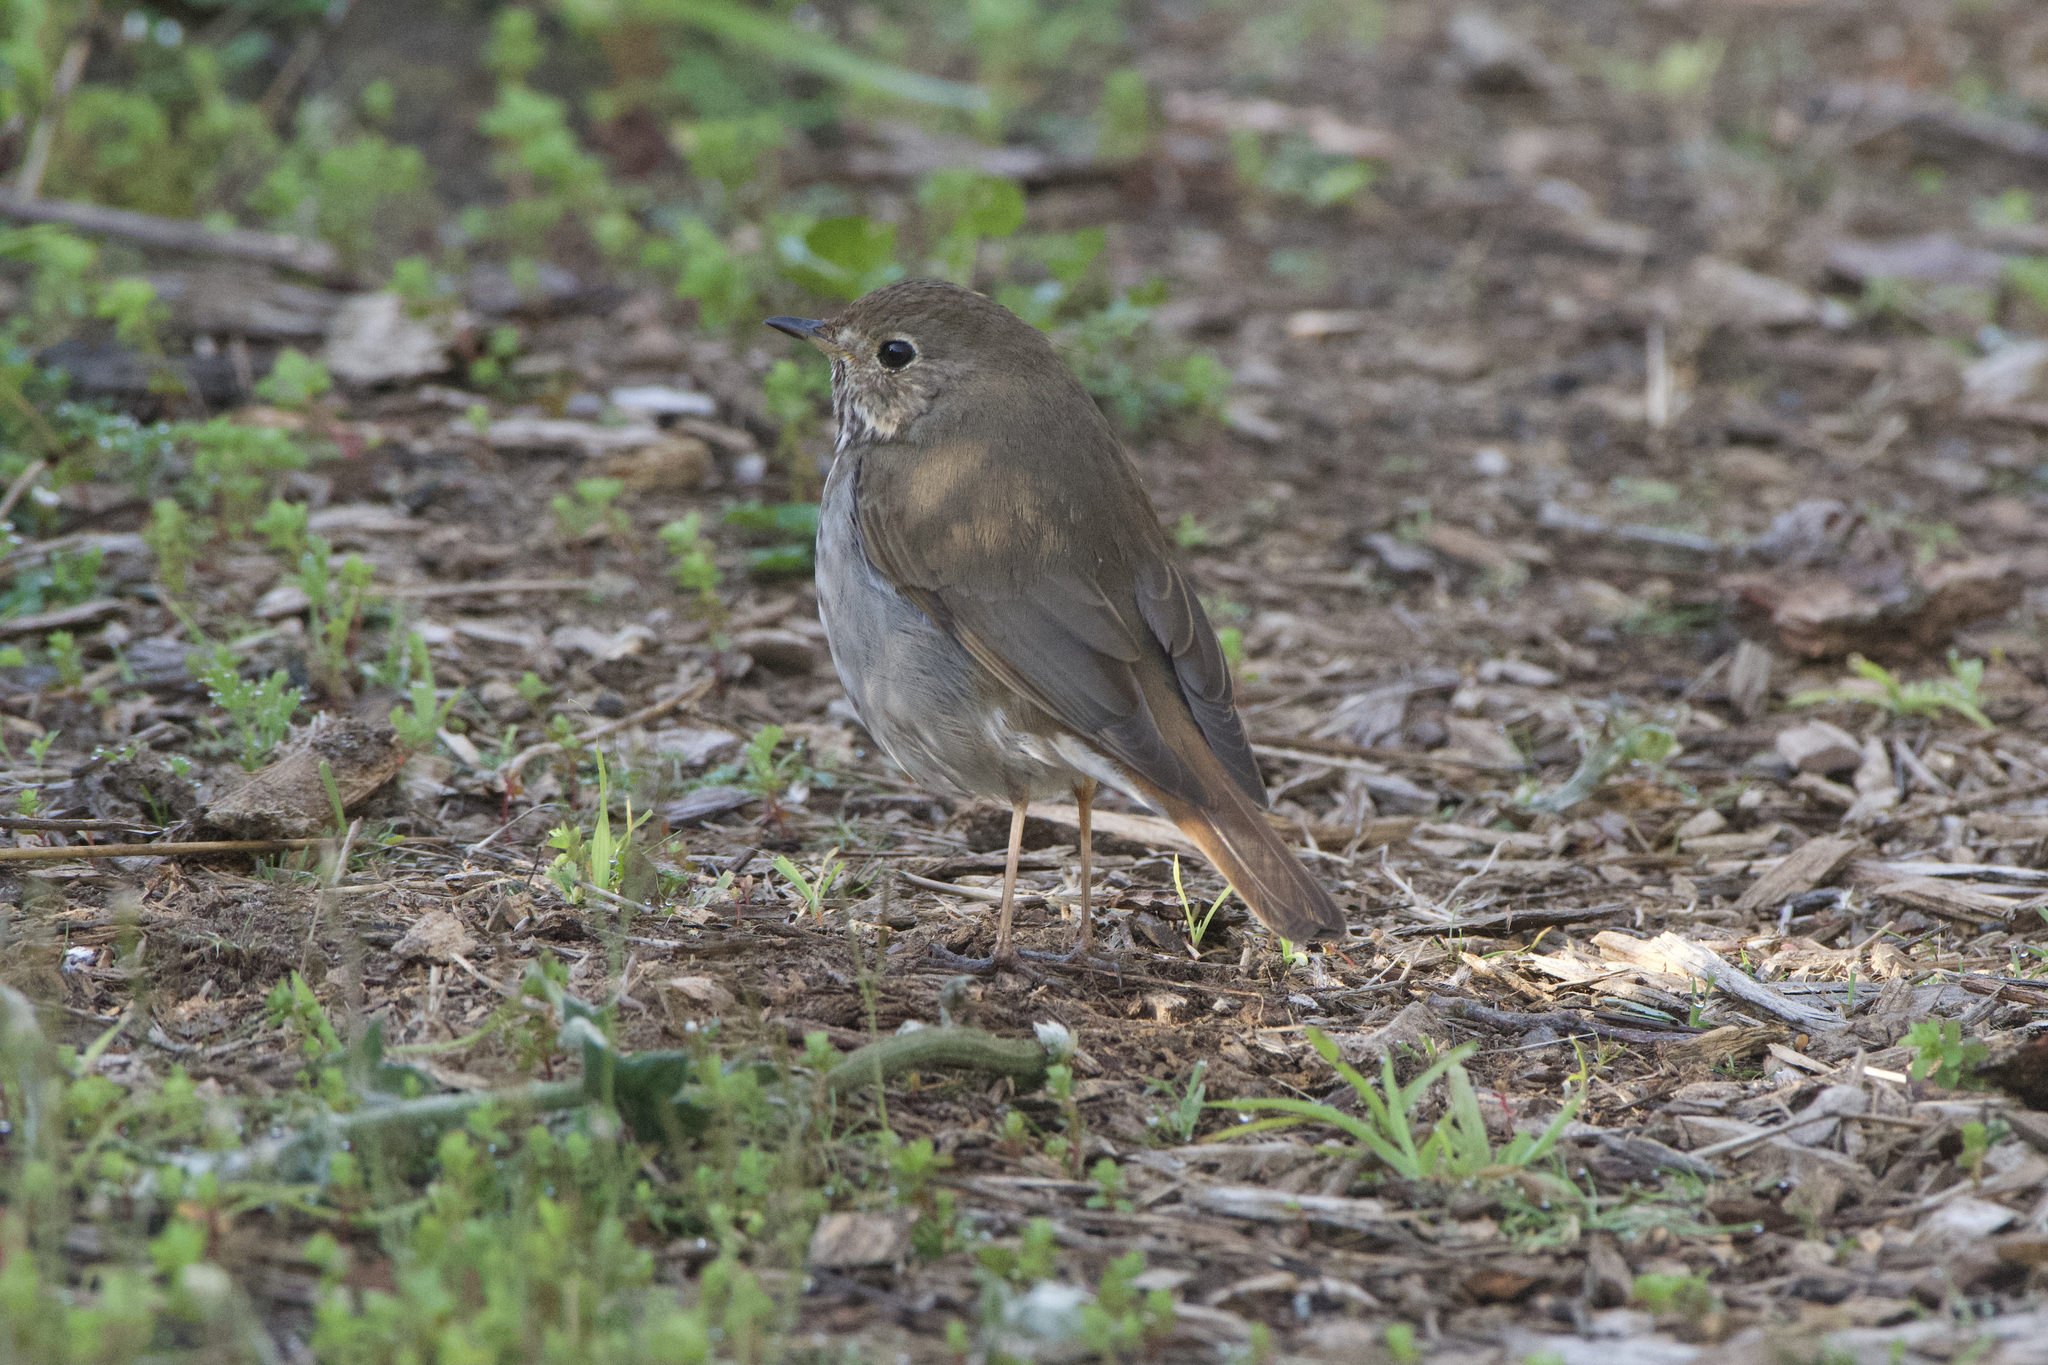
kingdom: Animalia
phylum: Chordata
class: Aves
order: Passeriformes
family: Turdidae
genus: Catharus
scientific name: Catharus guttatus
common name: Hermit thrush
